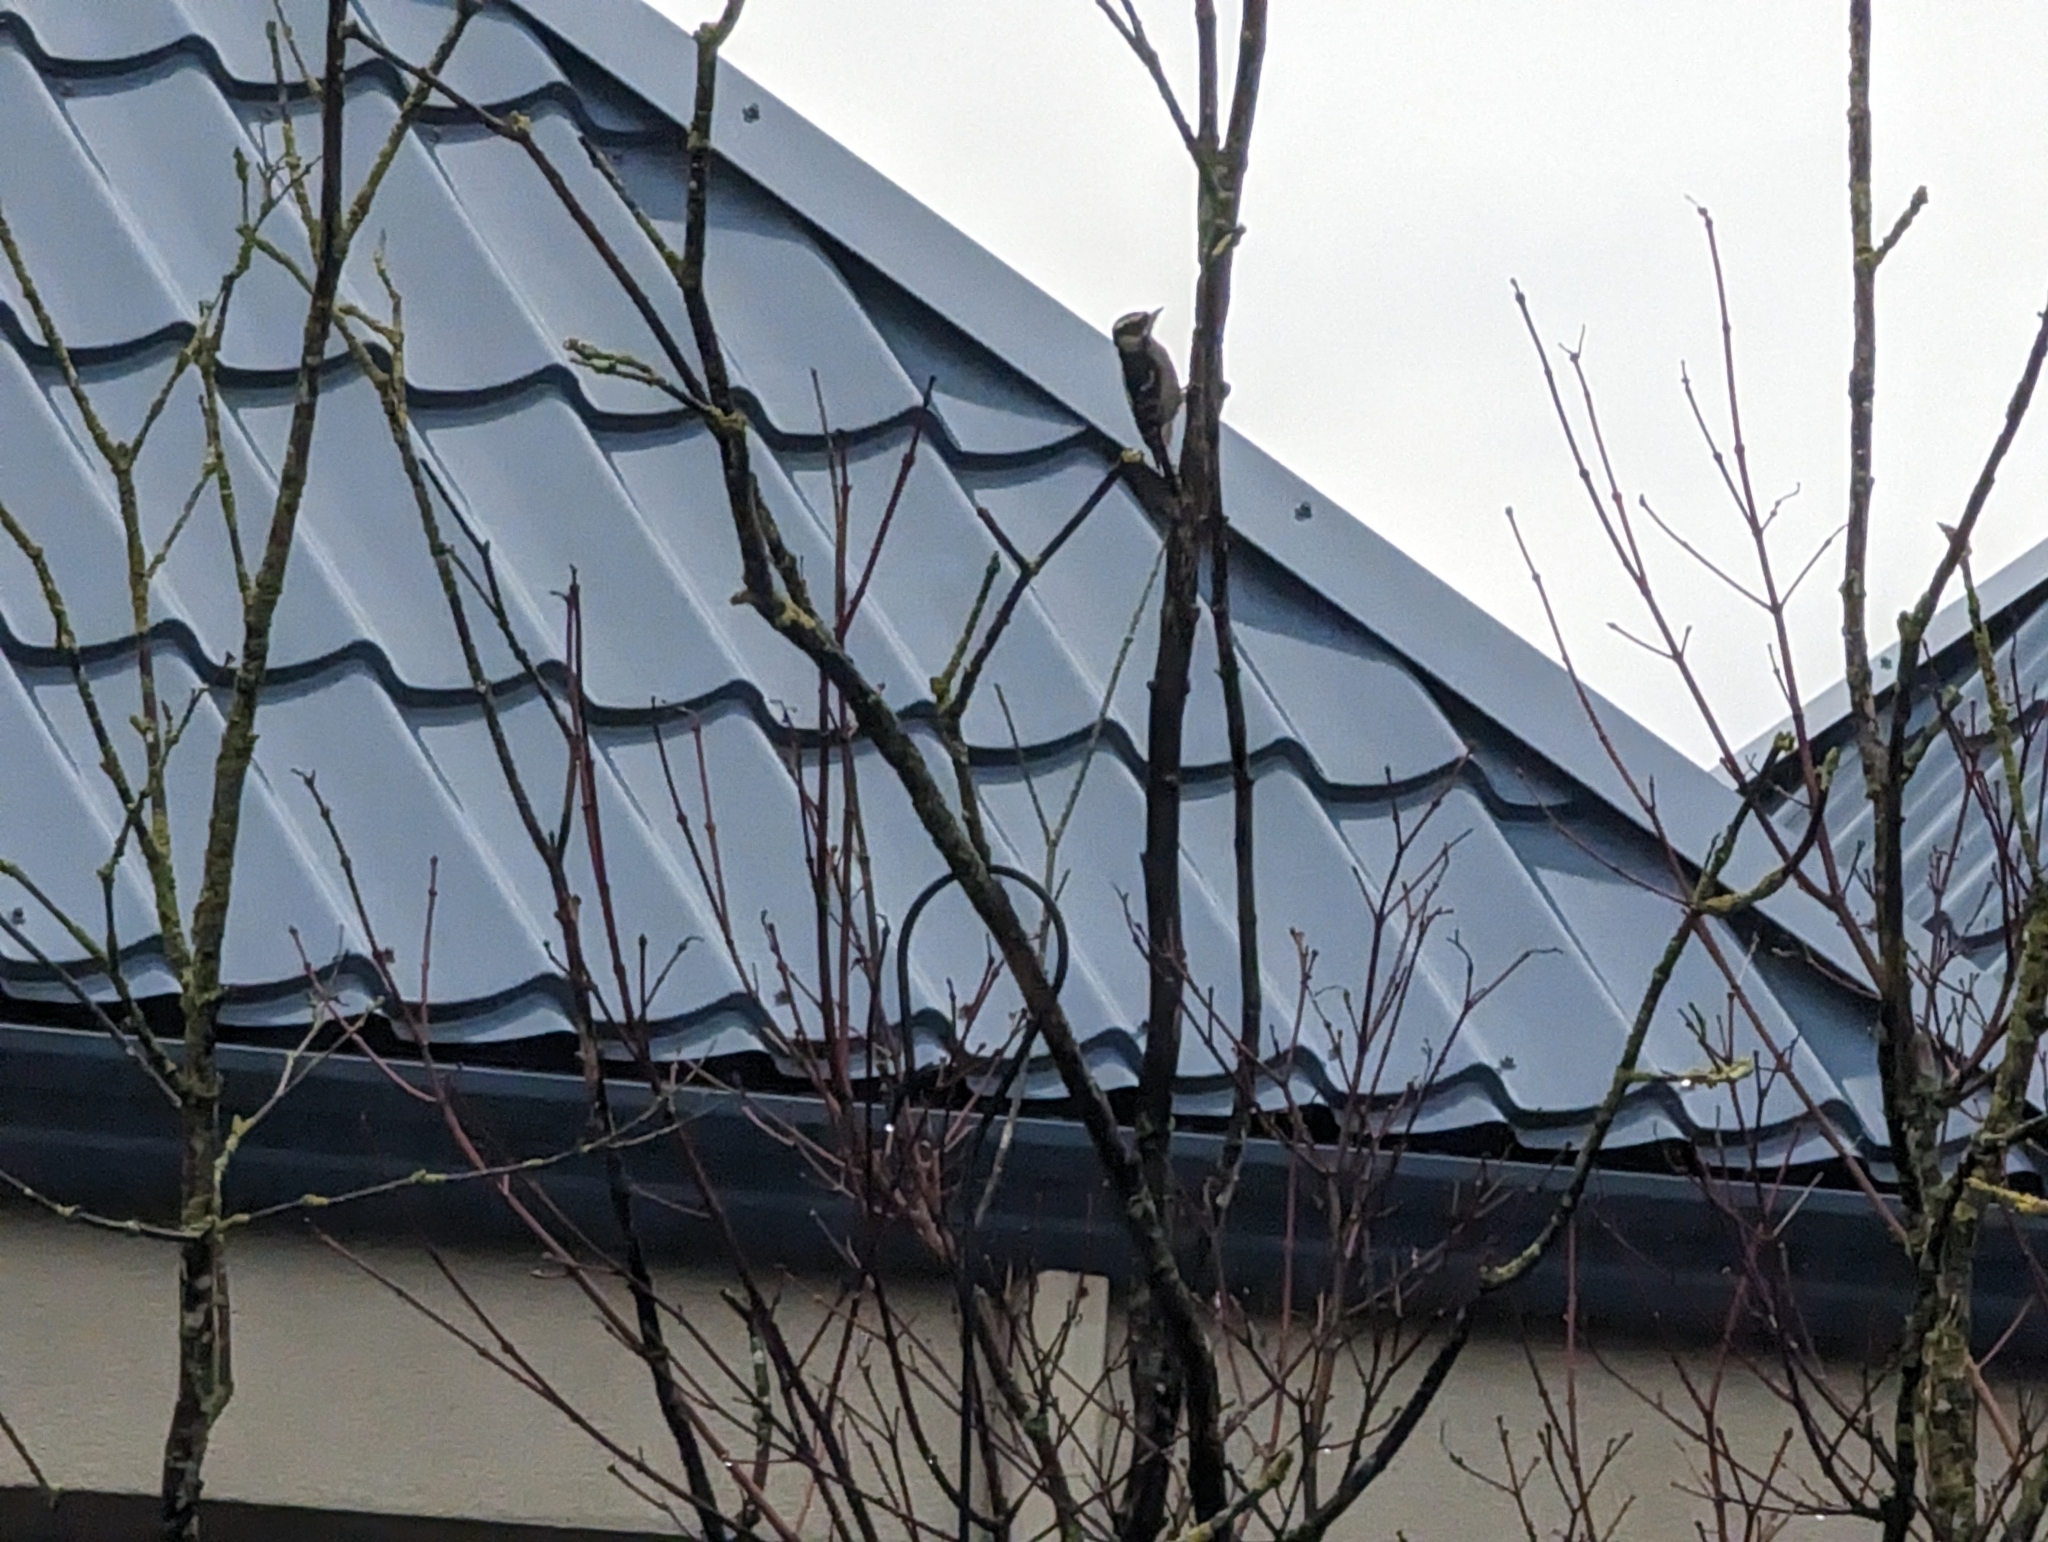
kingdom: Animalia
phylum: Chordata
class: Aves
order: Piciformes
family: Picidae
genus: Dryobates
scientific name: Dryobates pubescens
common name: Downy woodpecker
